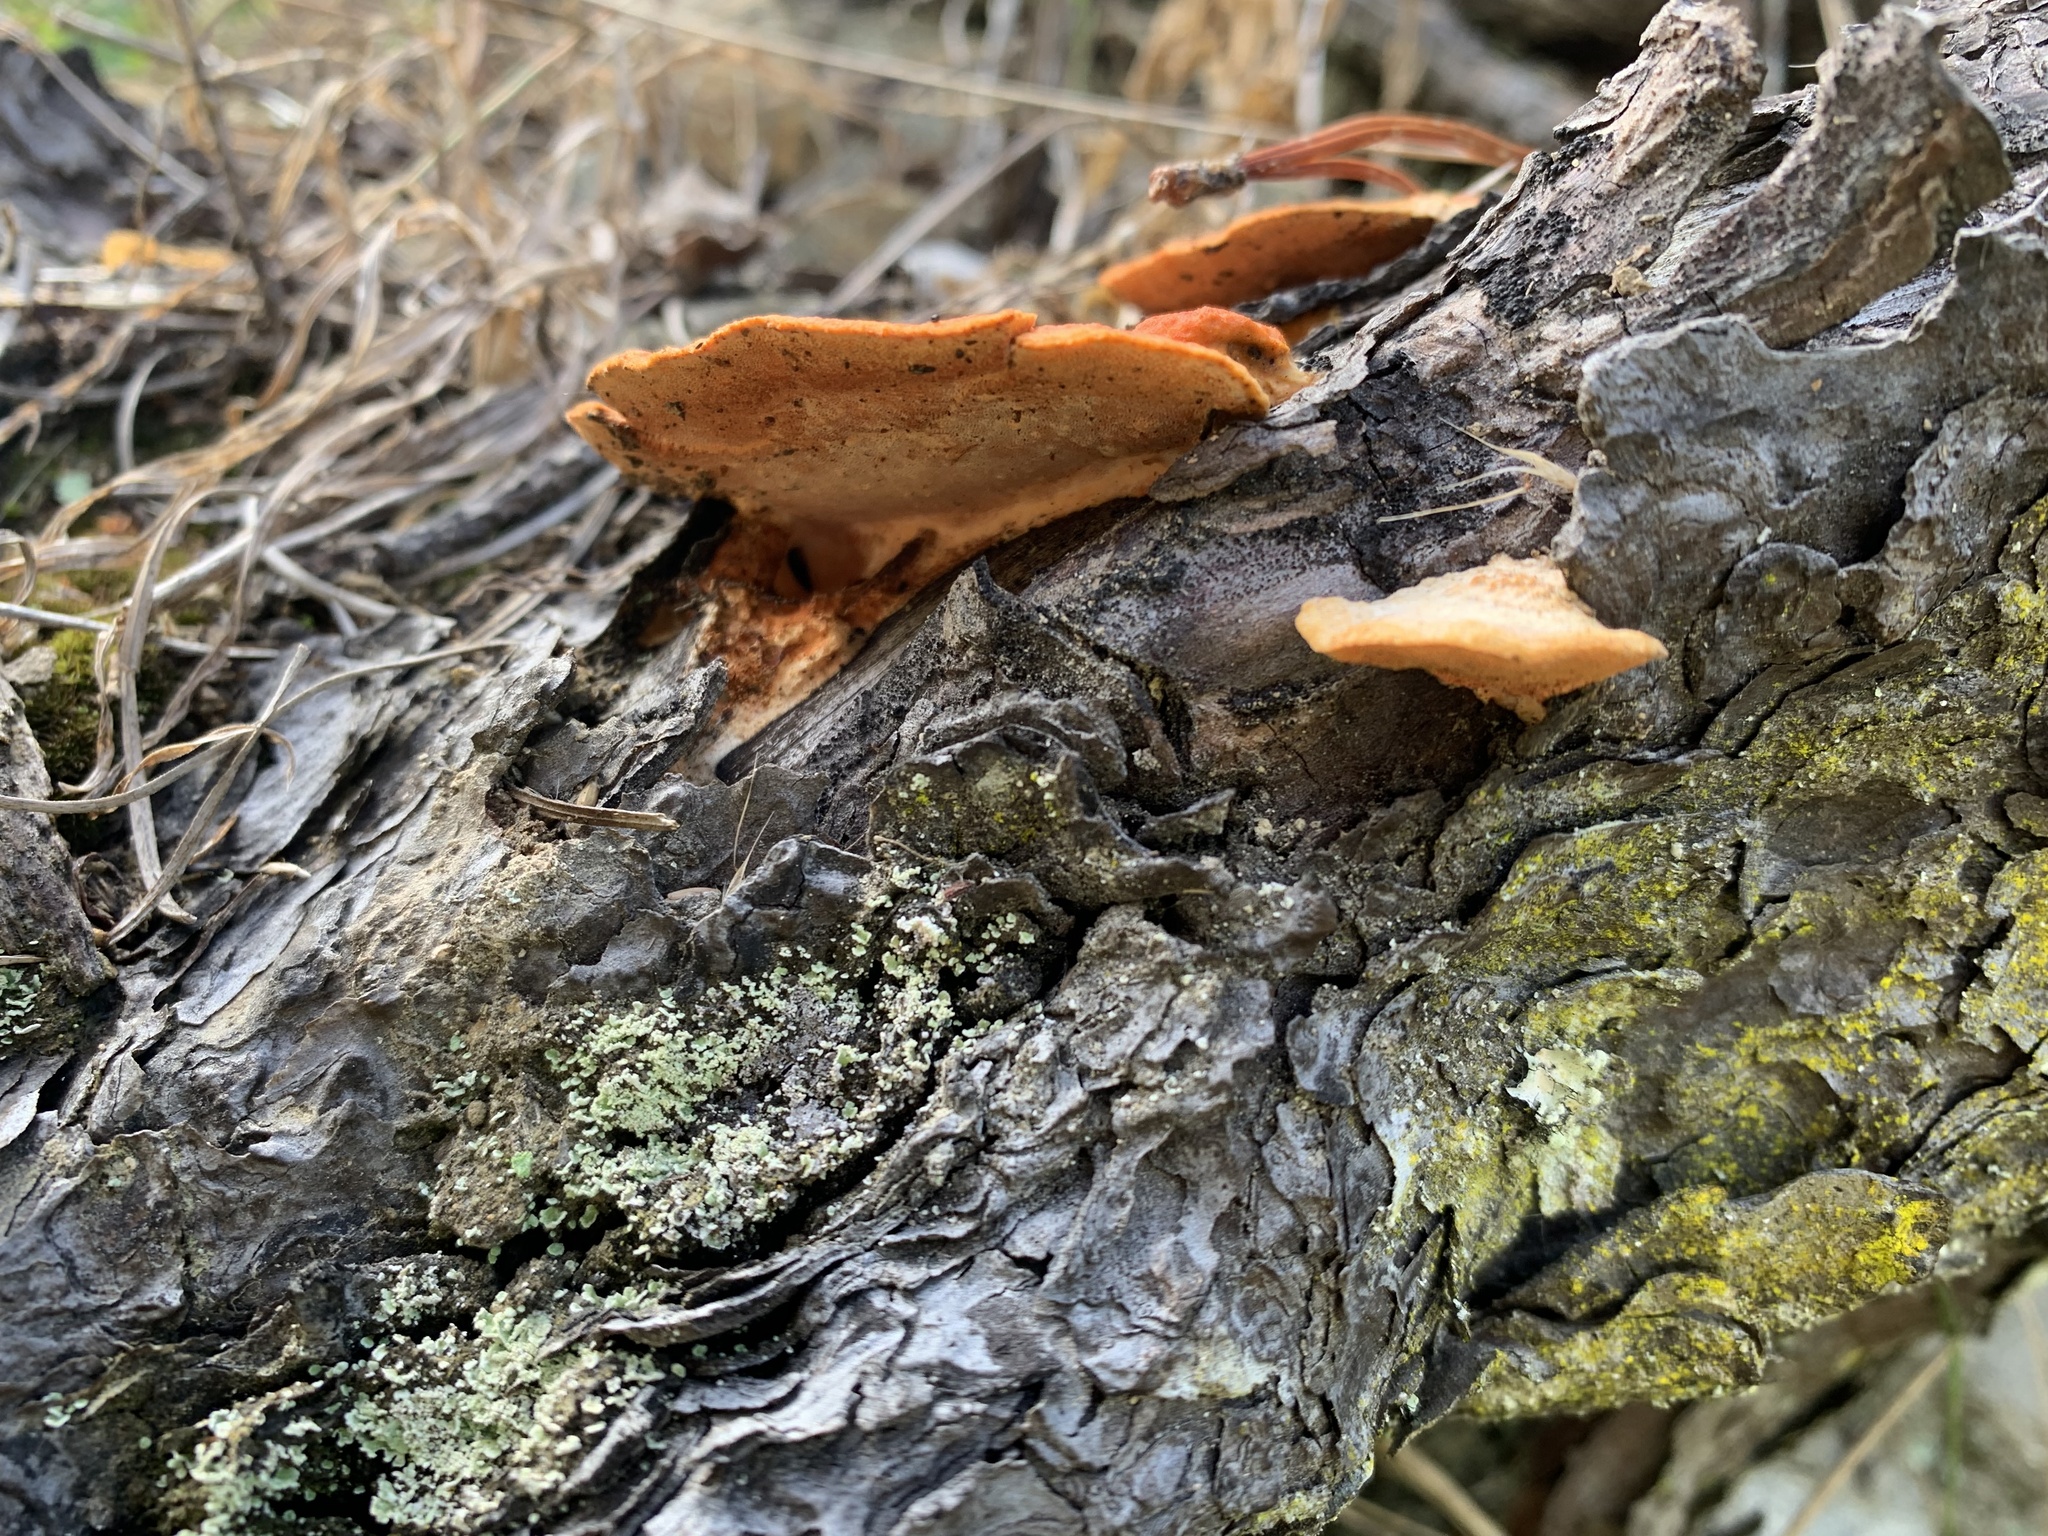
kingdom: Fungi
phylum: Basidiomycota
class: Agaricomycetes
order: Polyporales
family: Polyporaceae
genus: Trametes
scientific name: Trametes coccinea
